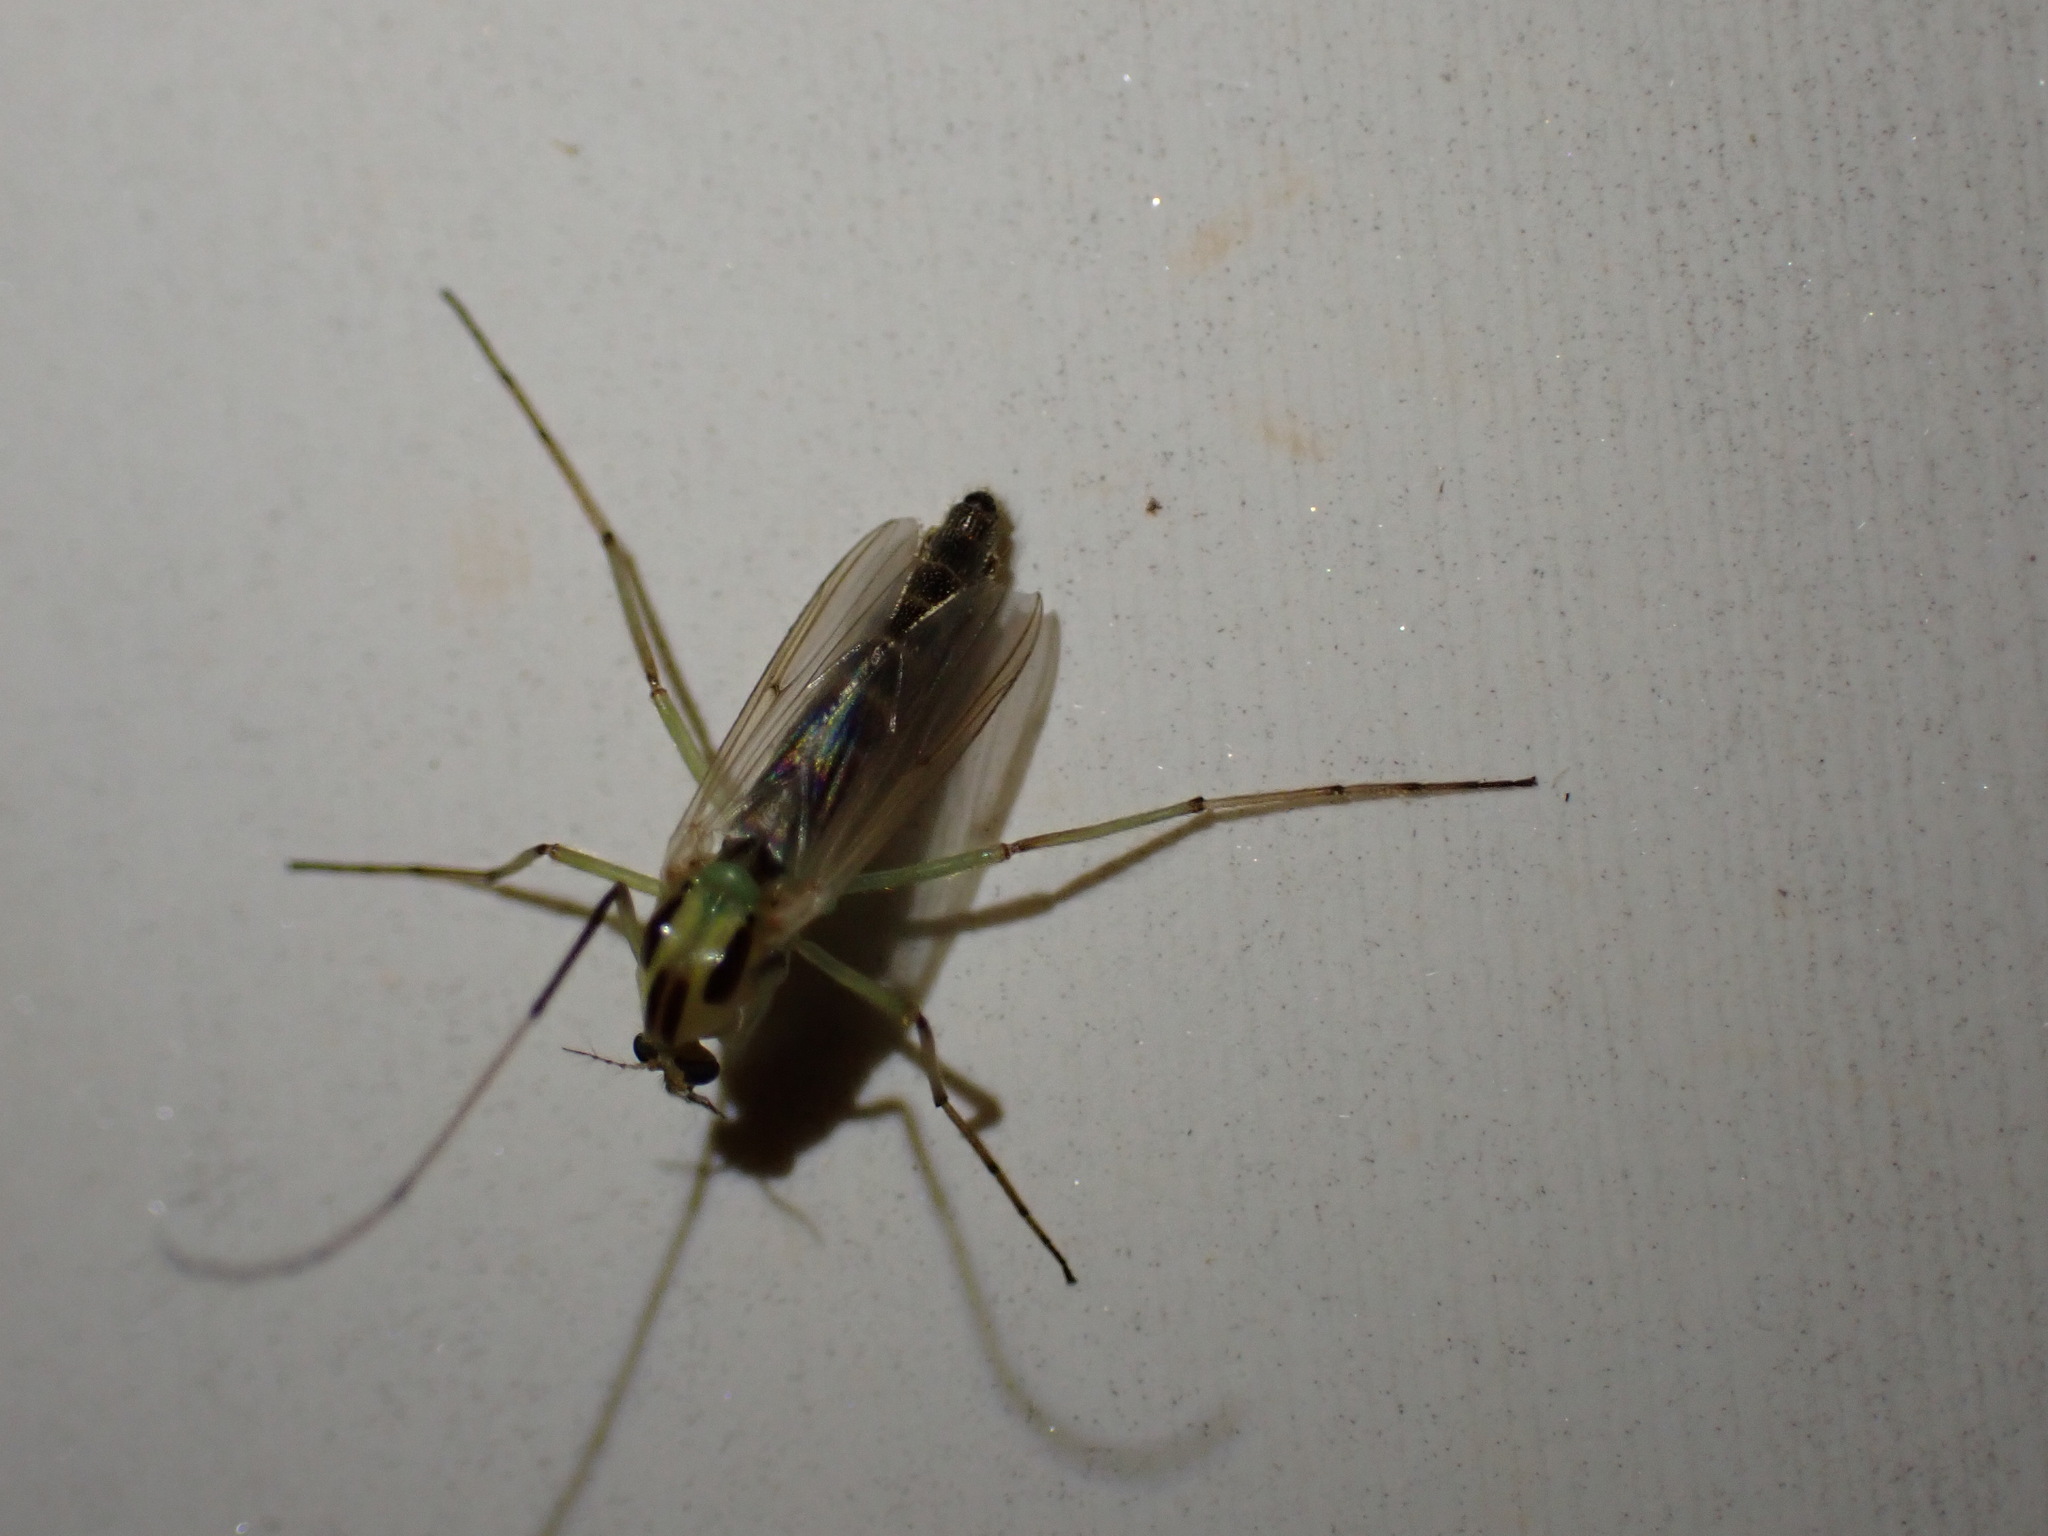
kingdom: Animalia
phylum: Arthropoda
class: Insecta
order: Diptera
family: Chironomidae
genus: Chironomus
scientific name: Chironomus atroviridis
